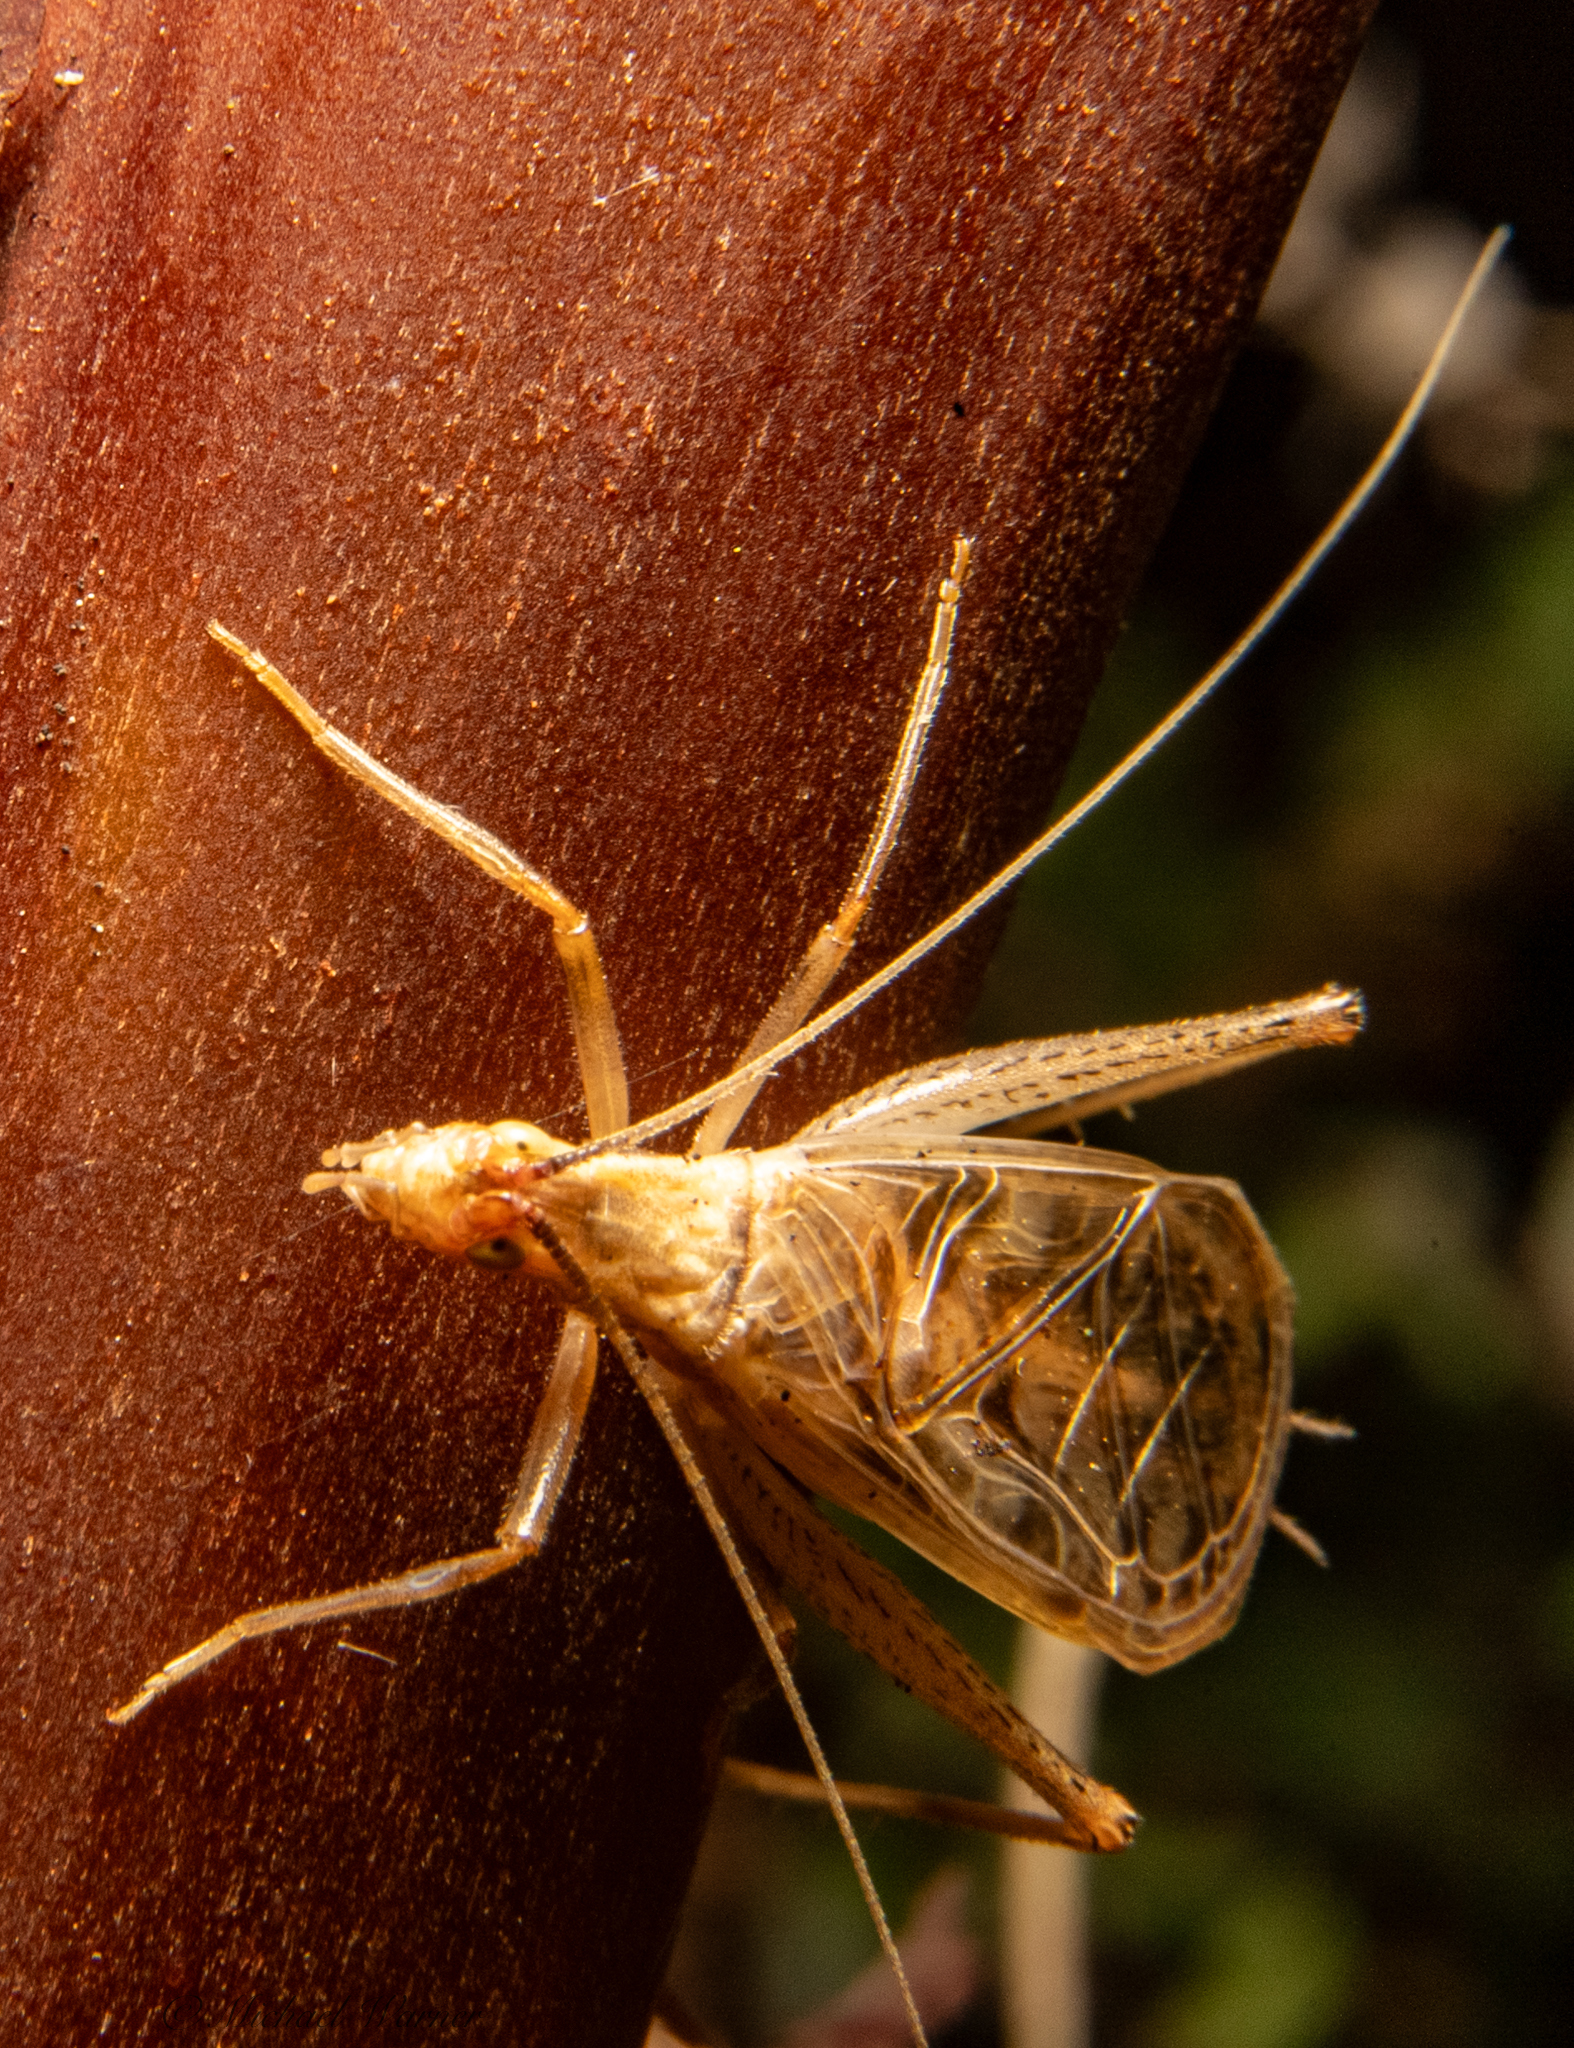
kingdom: Animalia
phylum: Arthropoda
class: Insecta
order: Orthoptera
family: Gryllidae
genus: Oecanthus
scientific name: Oecanthus californicus
